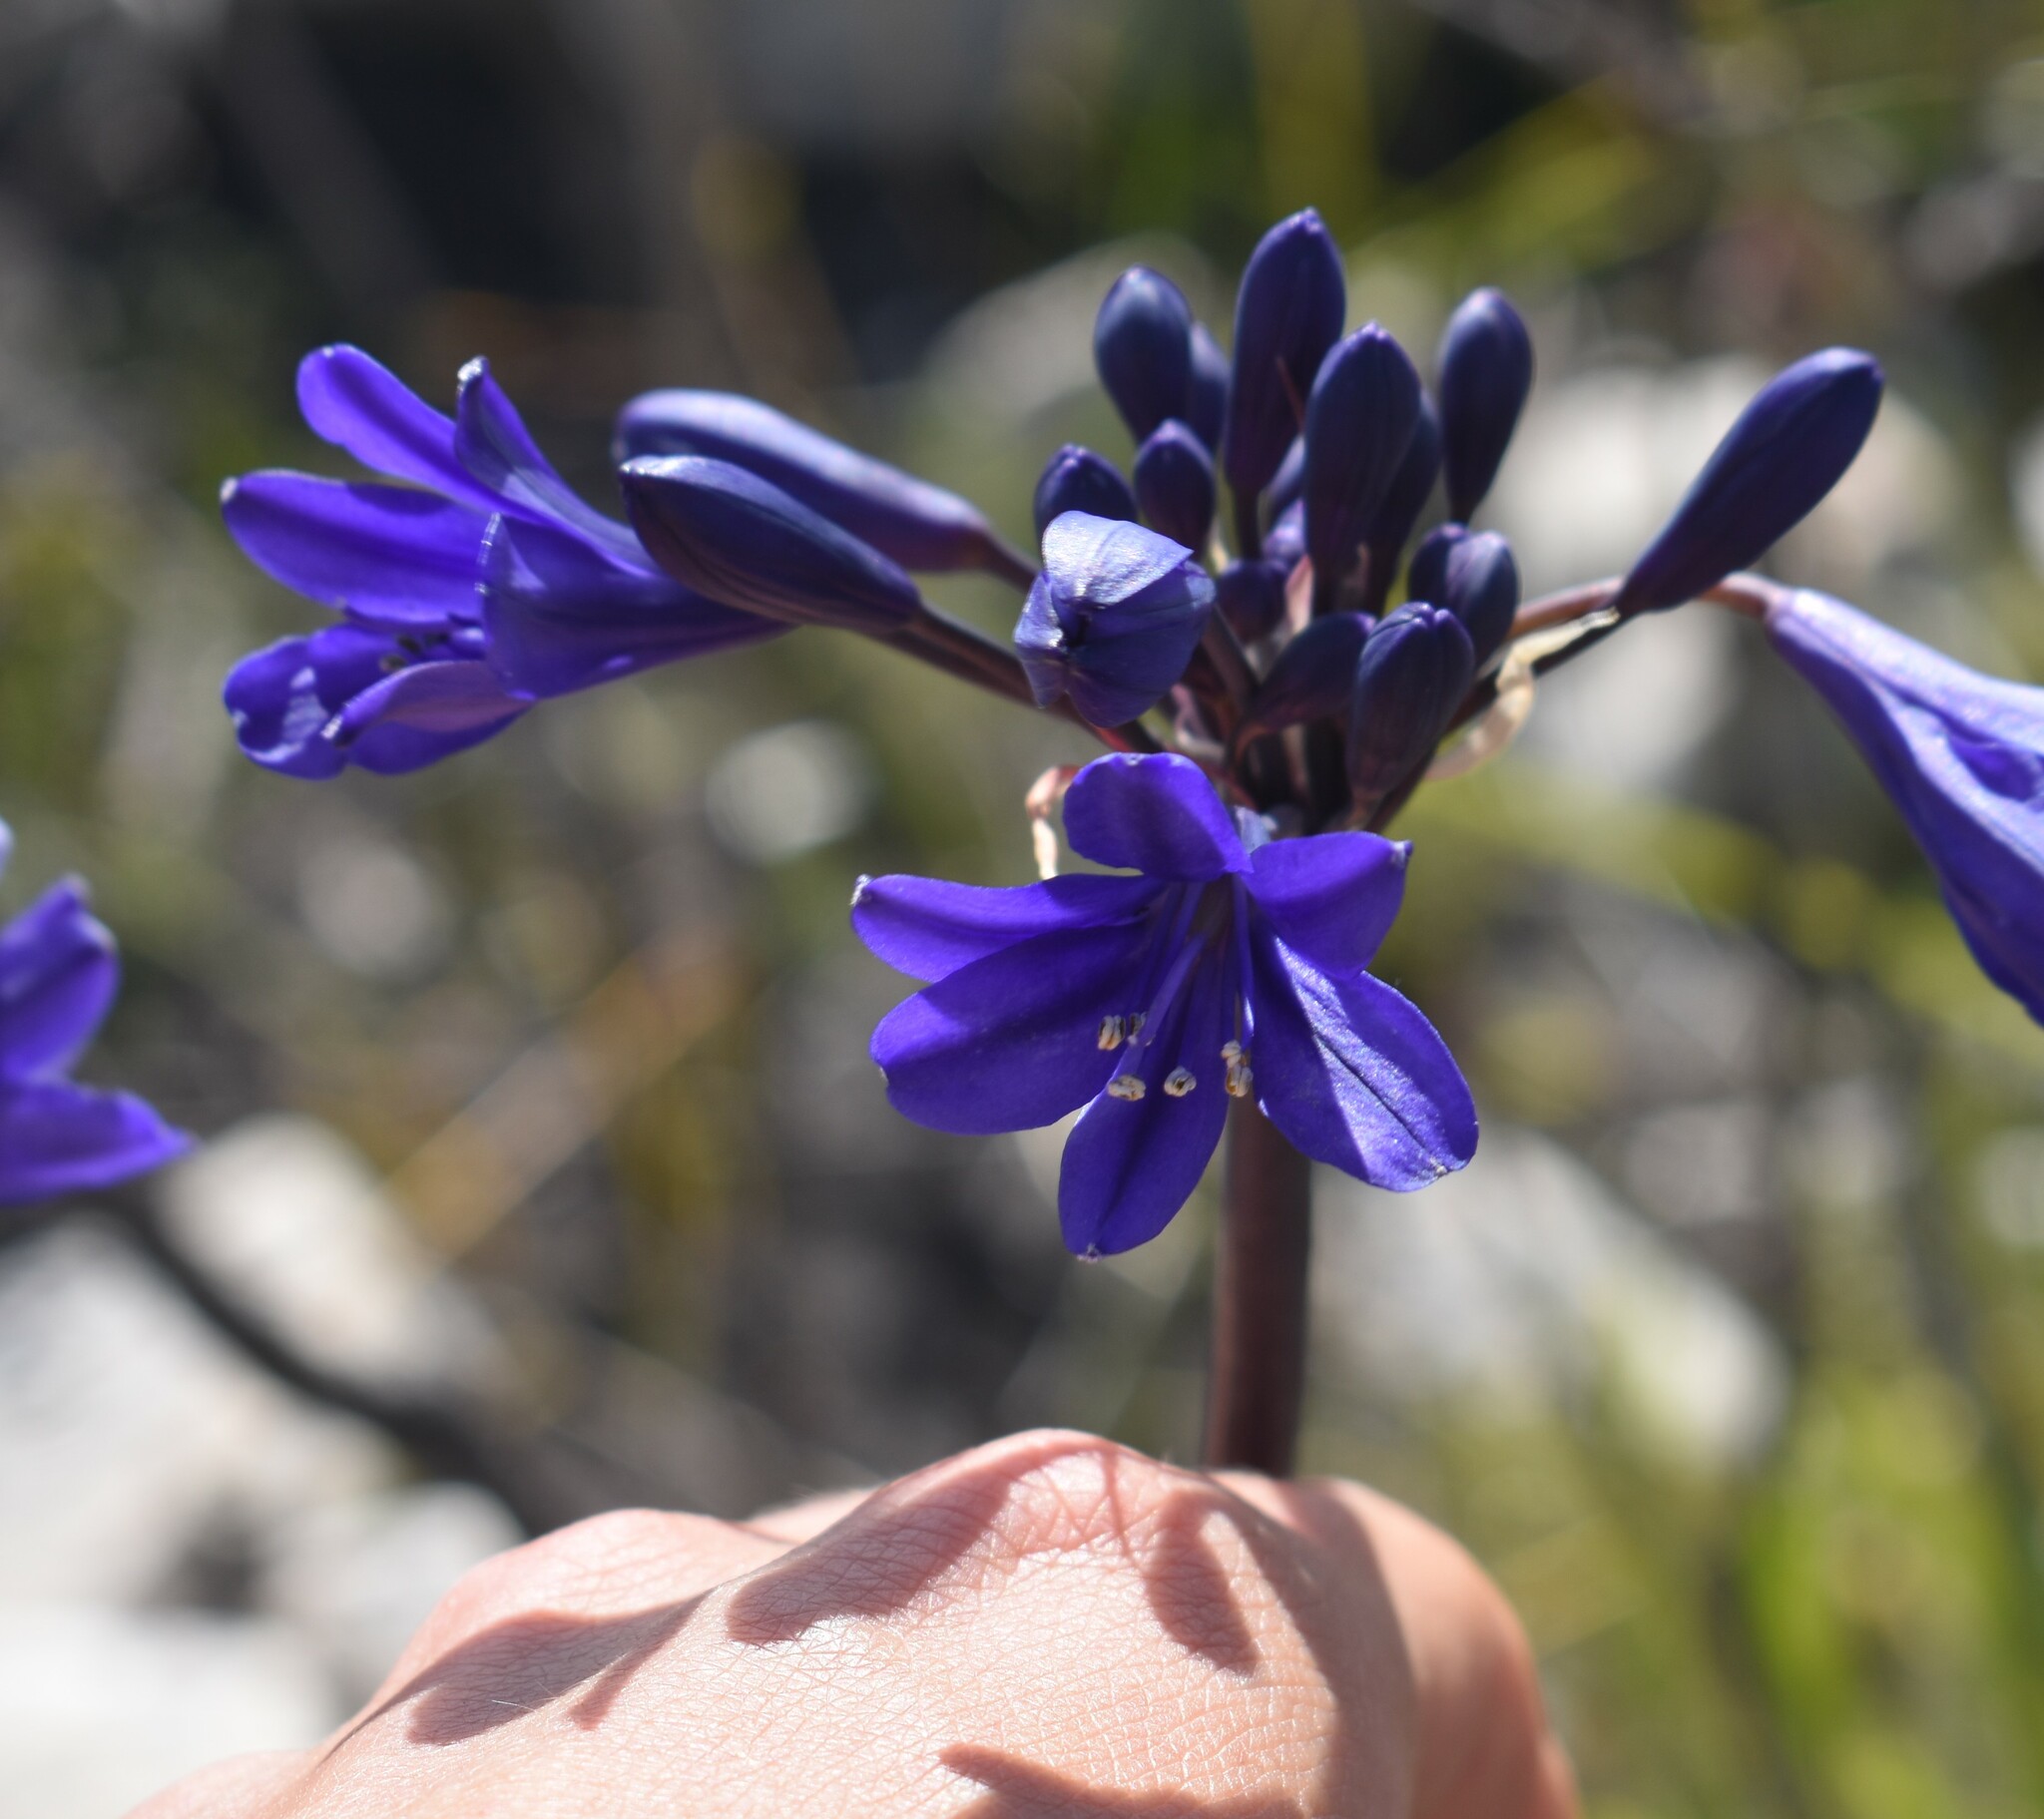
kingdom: Plantae
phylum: Tracheophyta
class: Liliopsida
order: Asparagales
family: Amaryllidaceae
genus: Agapanthus
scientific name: Agapanthus africanus
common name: Lily-of-the-nile
